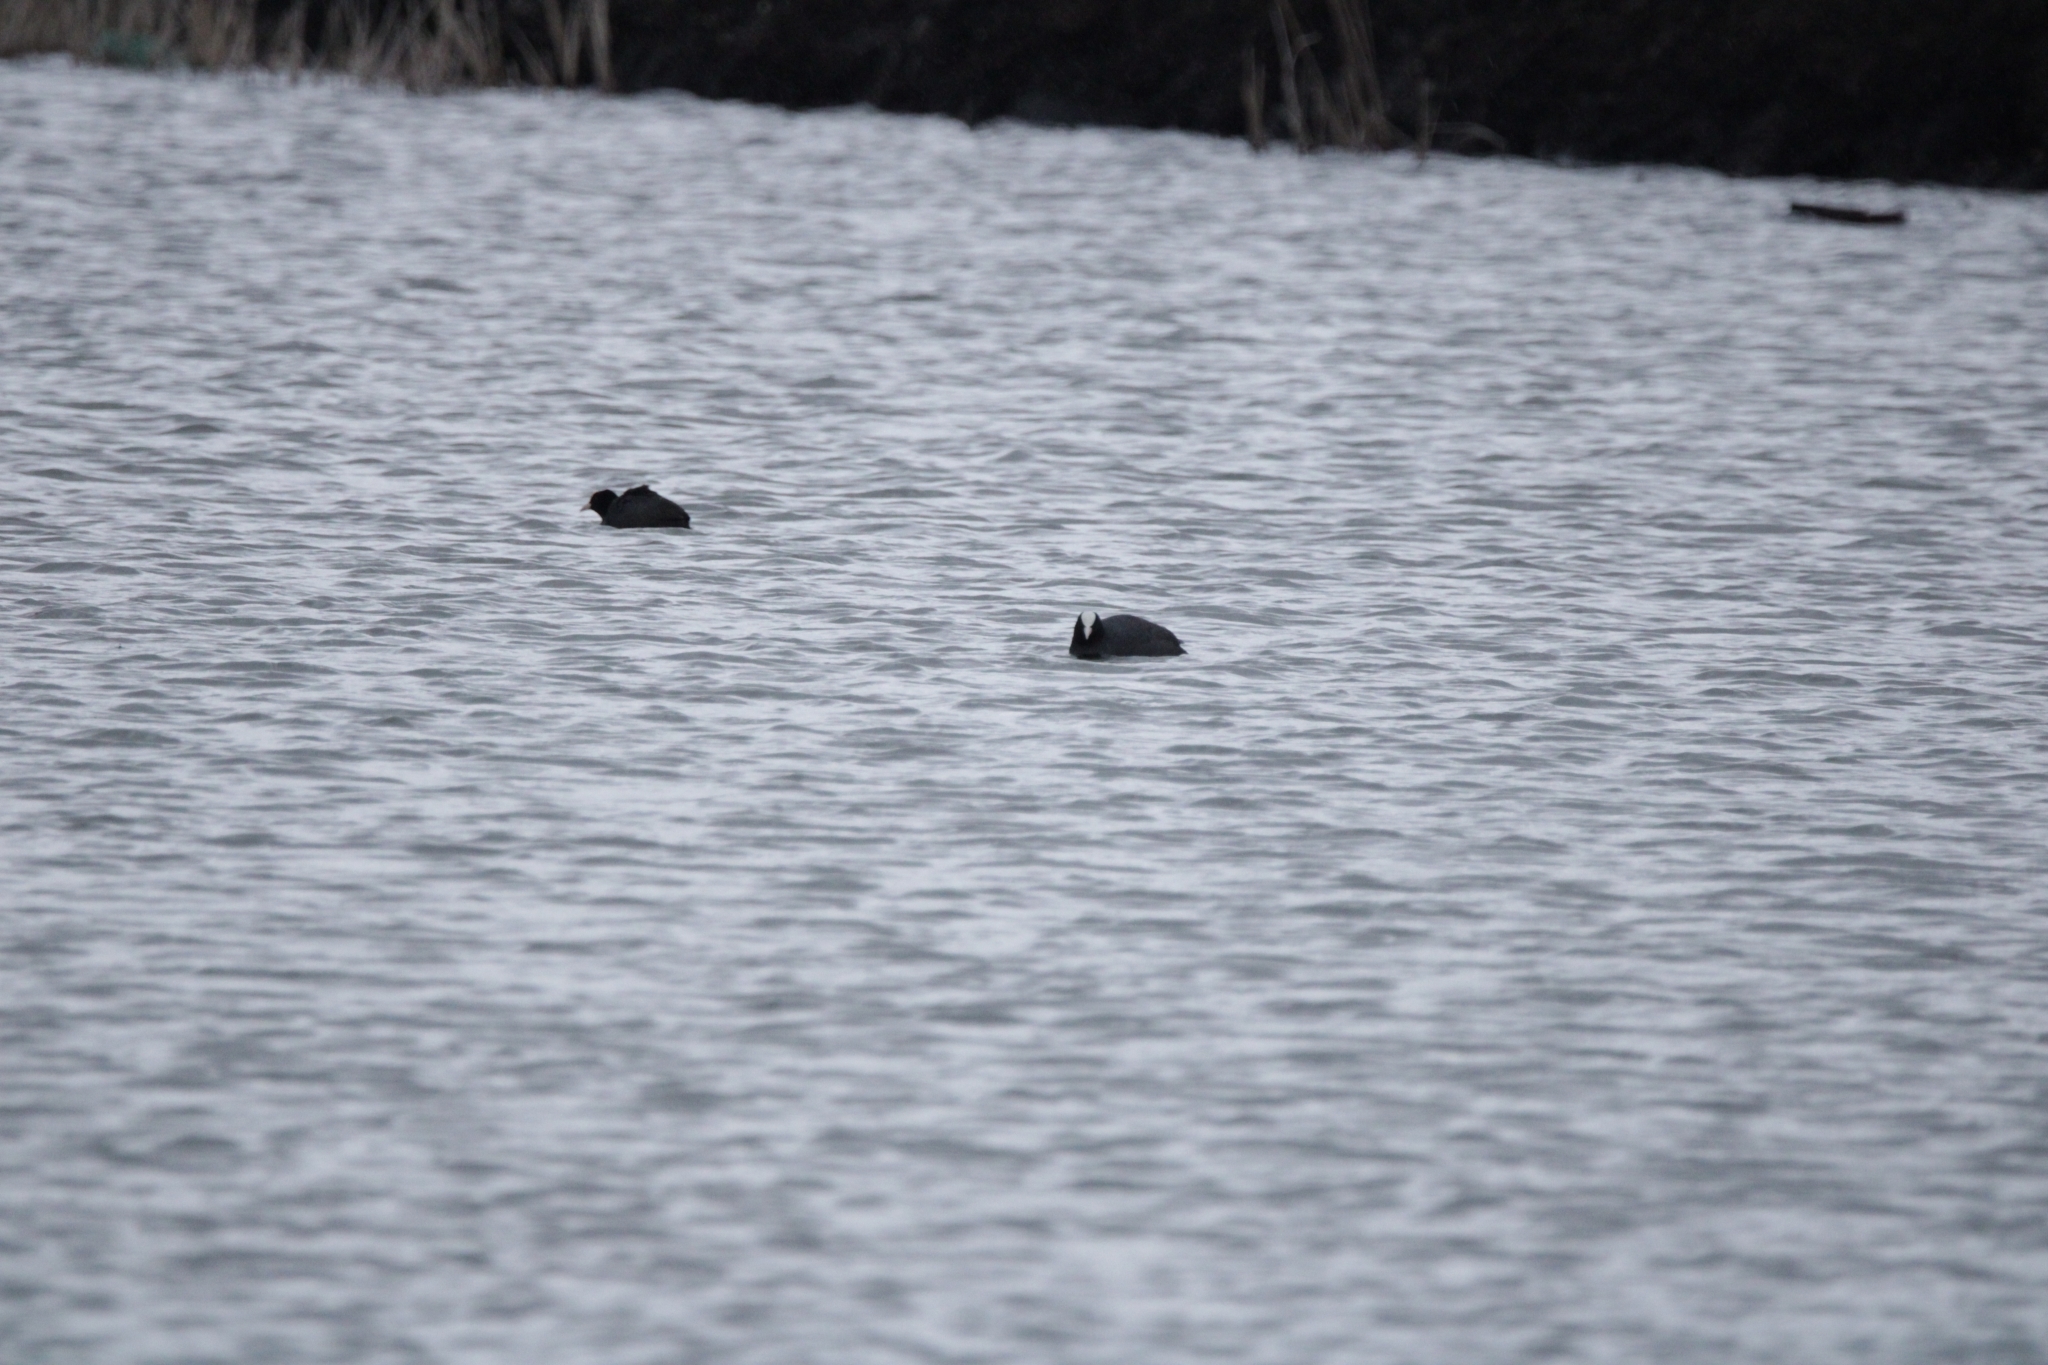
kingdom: Animalia
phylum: Chordata
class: Aves
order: Gruiformes
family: Rallidae
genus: Fulica
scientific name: Fulica atra
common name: Eurasian coot
